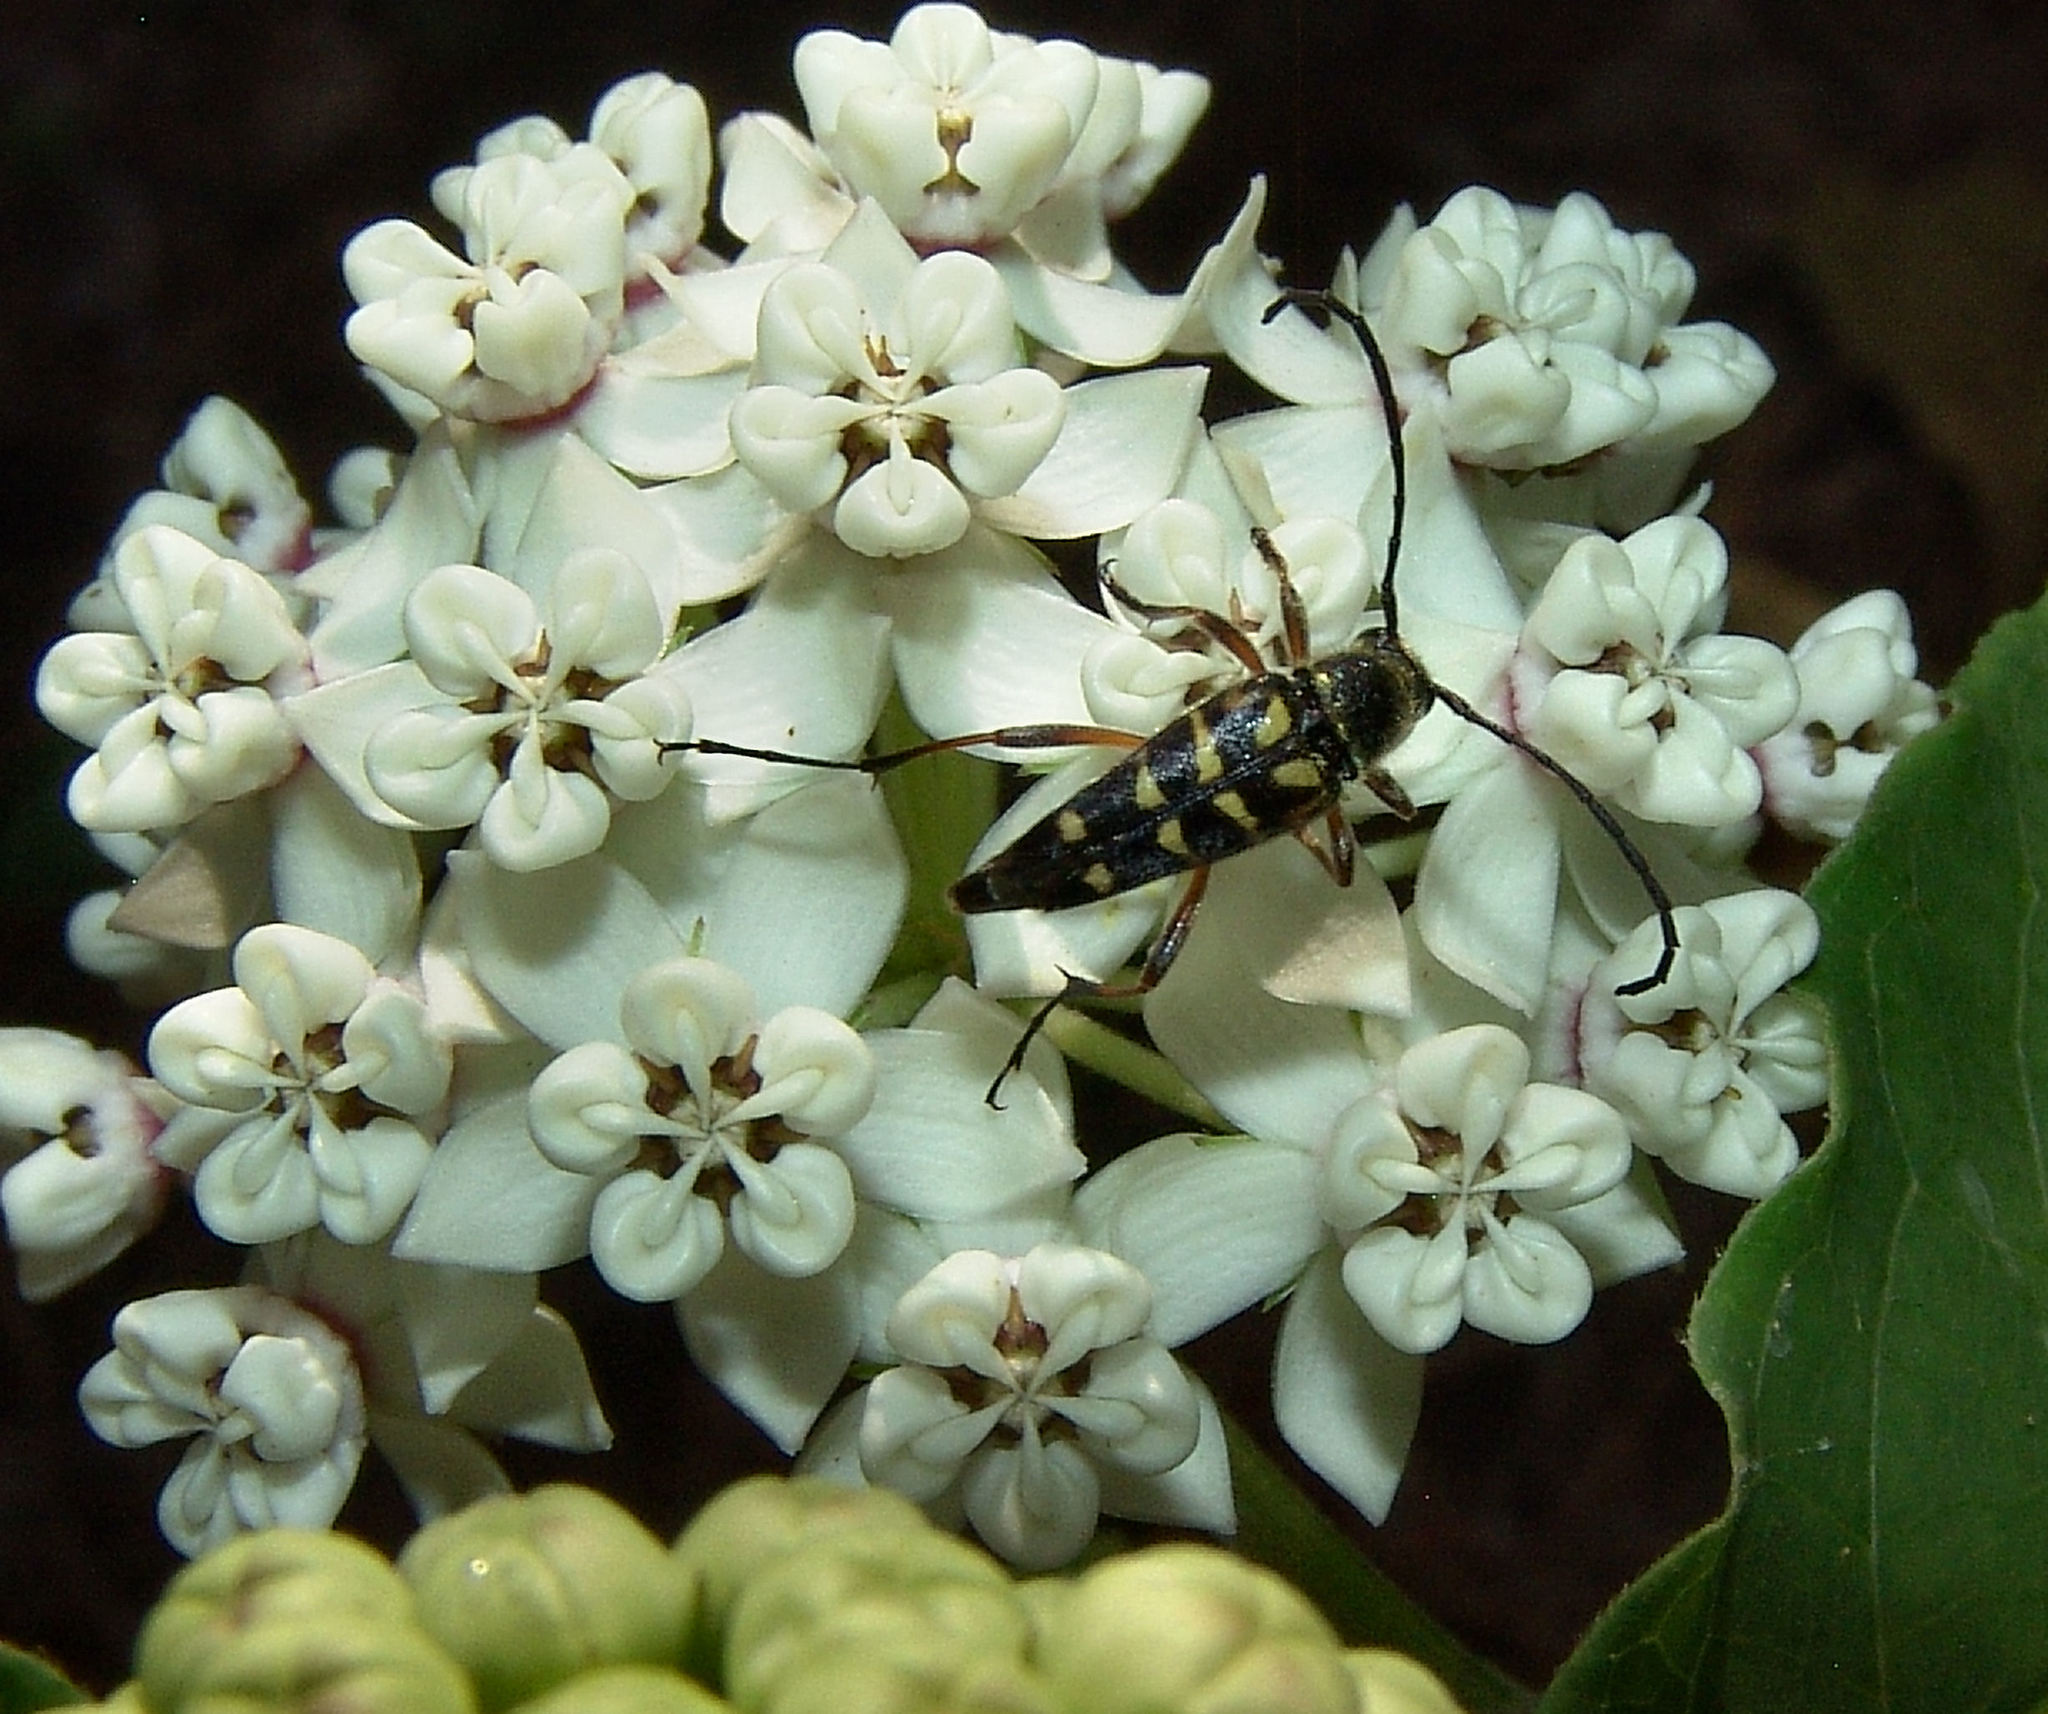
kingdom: Animalia
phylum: Arthropoda
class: Insecta
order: Coleoptera
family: Cerambycidae
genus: Typocerus
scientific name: Typocerus zebra
